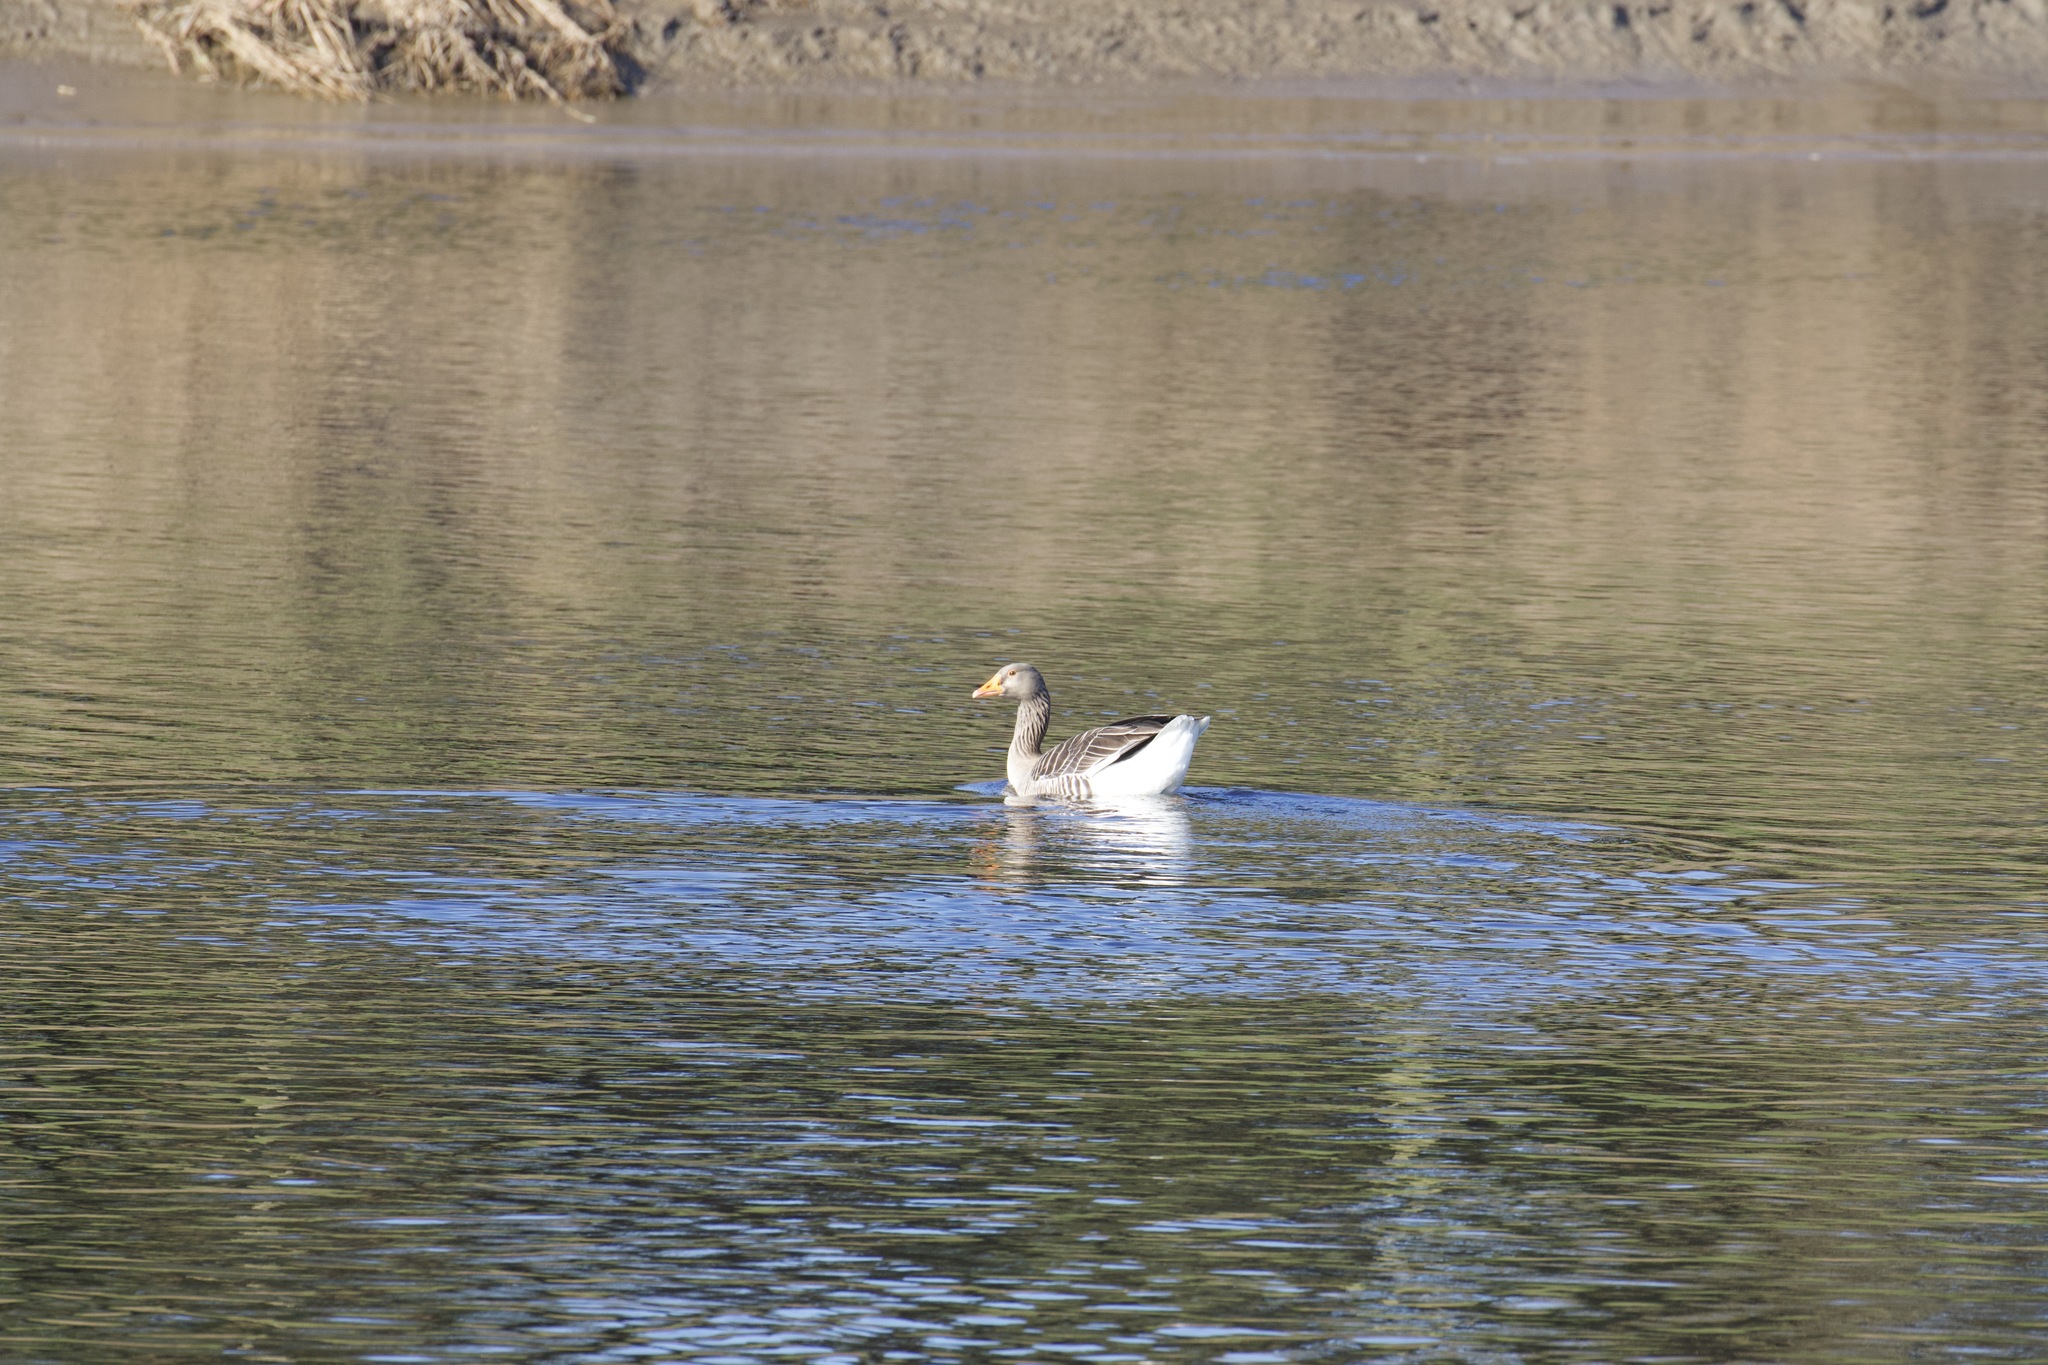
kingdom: Animalia
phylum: Chordata
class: Aves
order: Anseriformes
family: Anatidae
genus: Anser
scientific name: Anser anser
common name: Greylag goose
